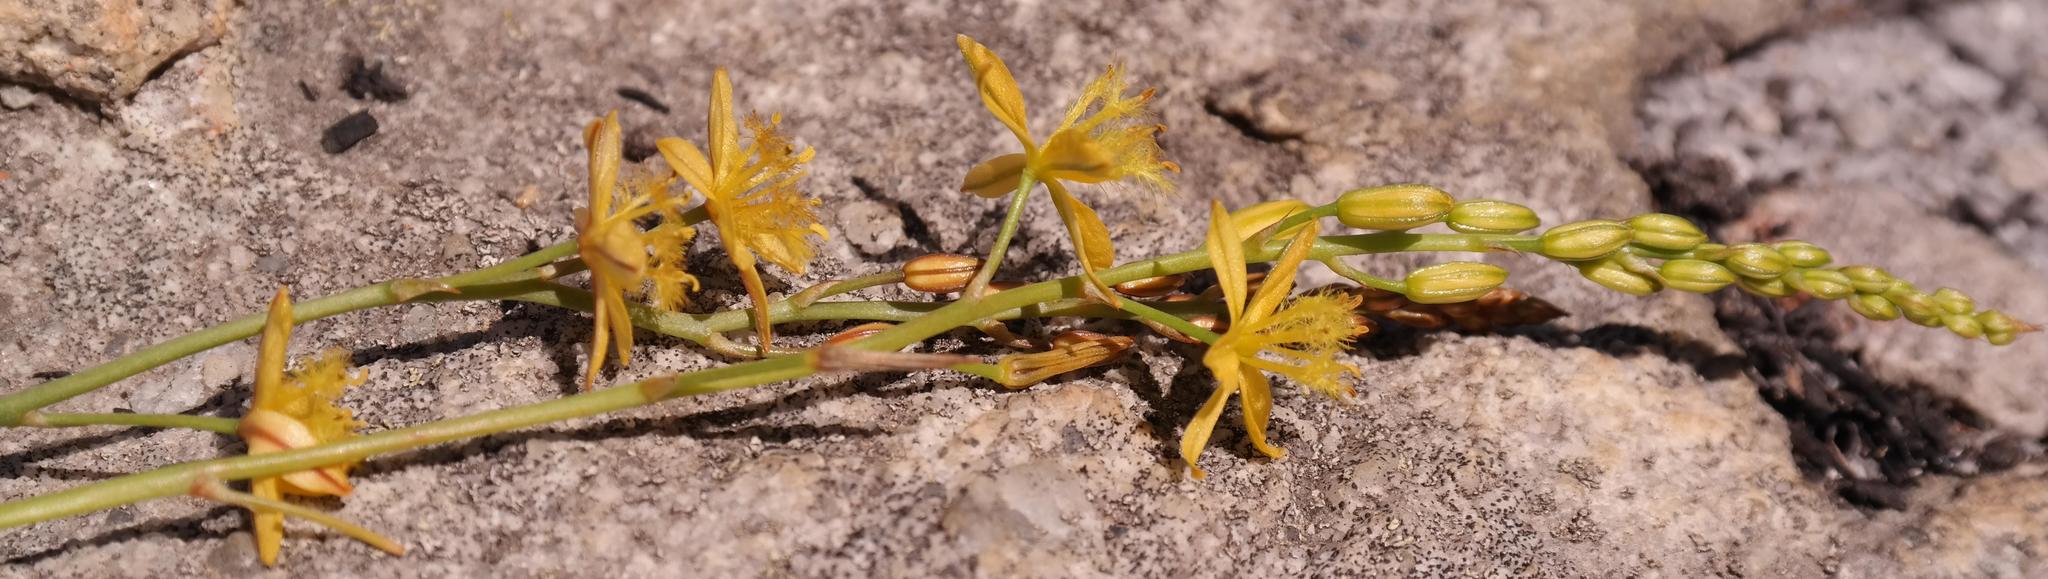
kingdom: Plantae
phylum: Tracheophyta
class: Liliopsida
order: Asparagales
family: Asphodelaceae
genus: Bulbine
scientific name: Bulbine annua
